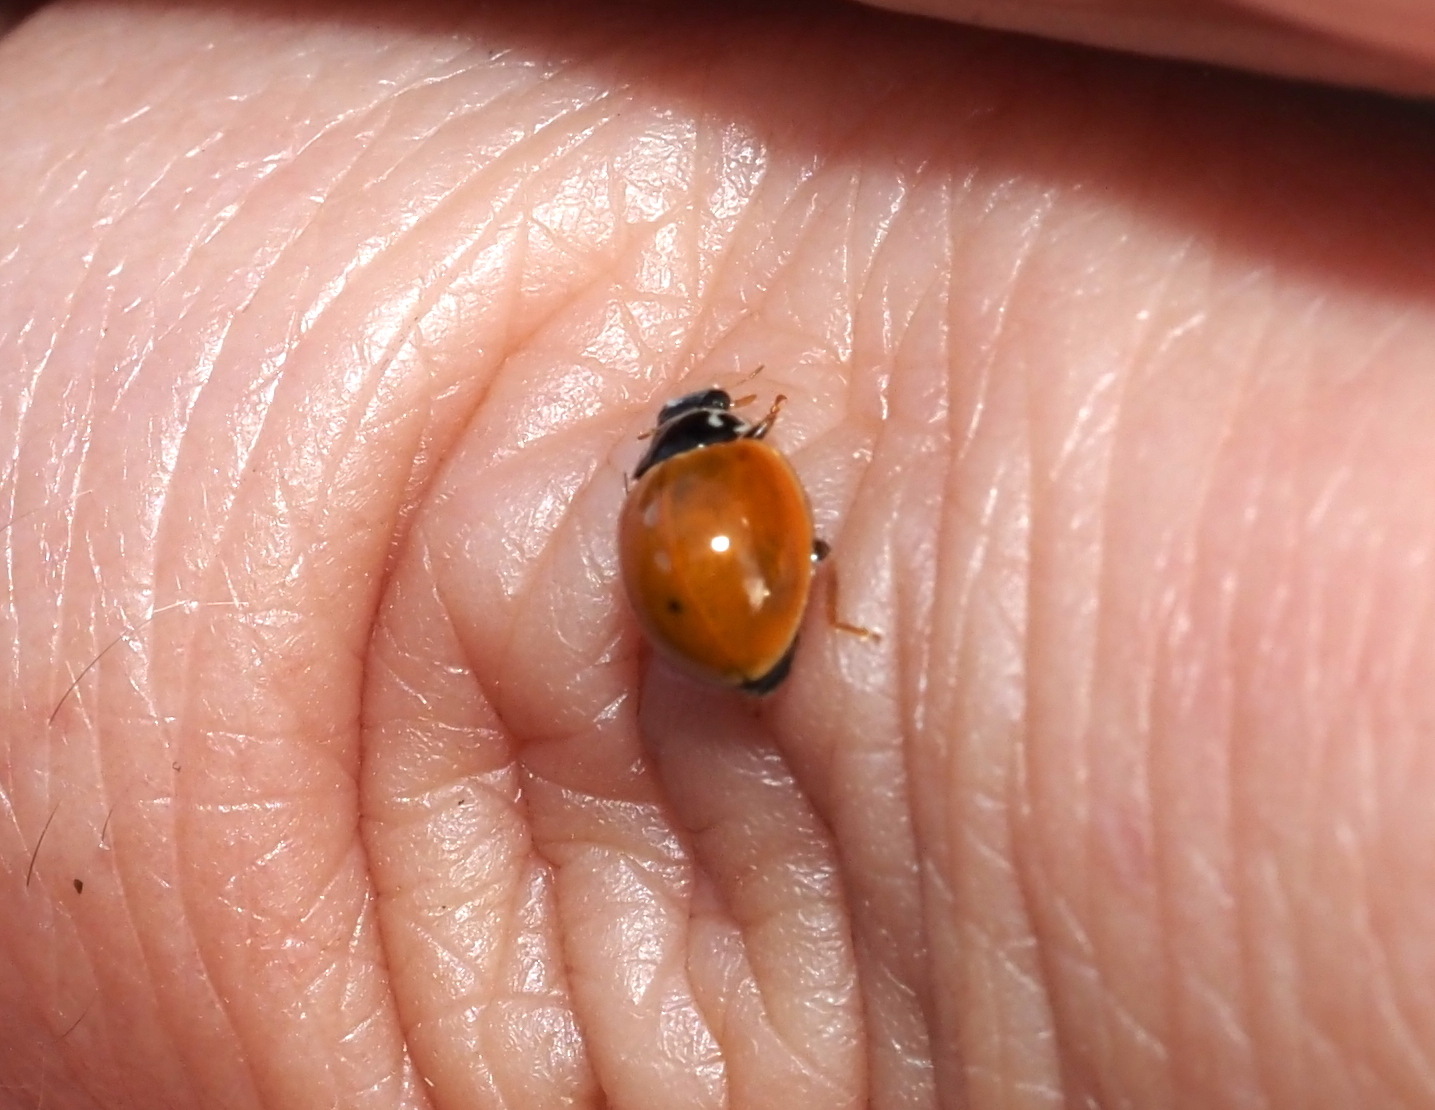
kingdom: Animalia
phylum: Arthropoda
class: Insecta
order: Coleoptera
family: Coccinellidae
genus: Cycloneda
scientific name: Cycloneda munda
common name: Polished lady beetle
